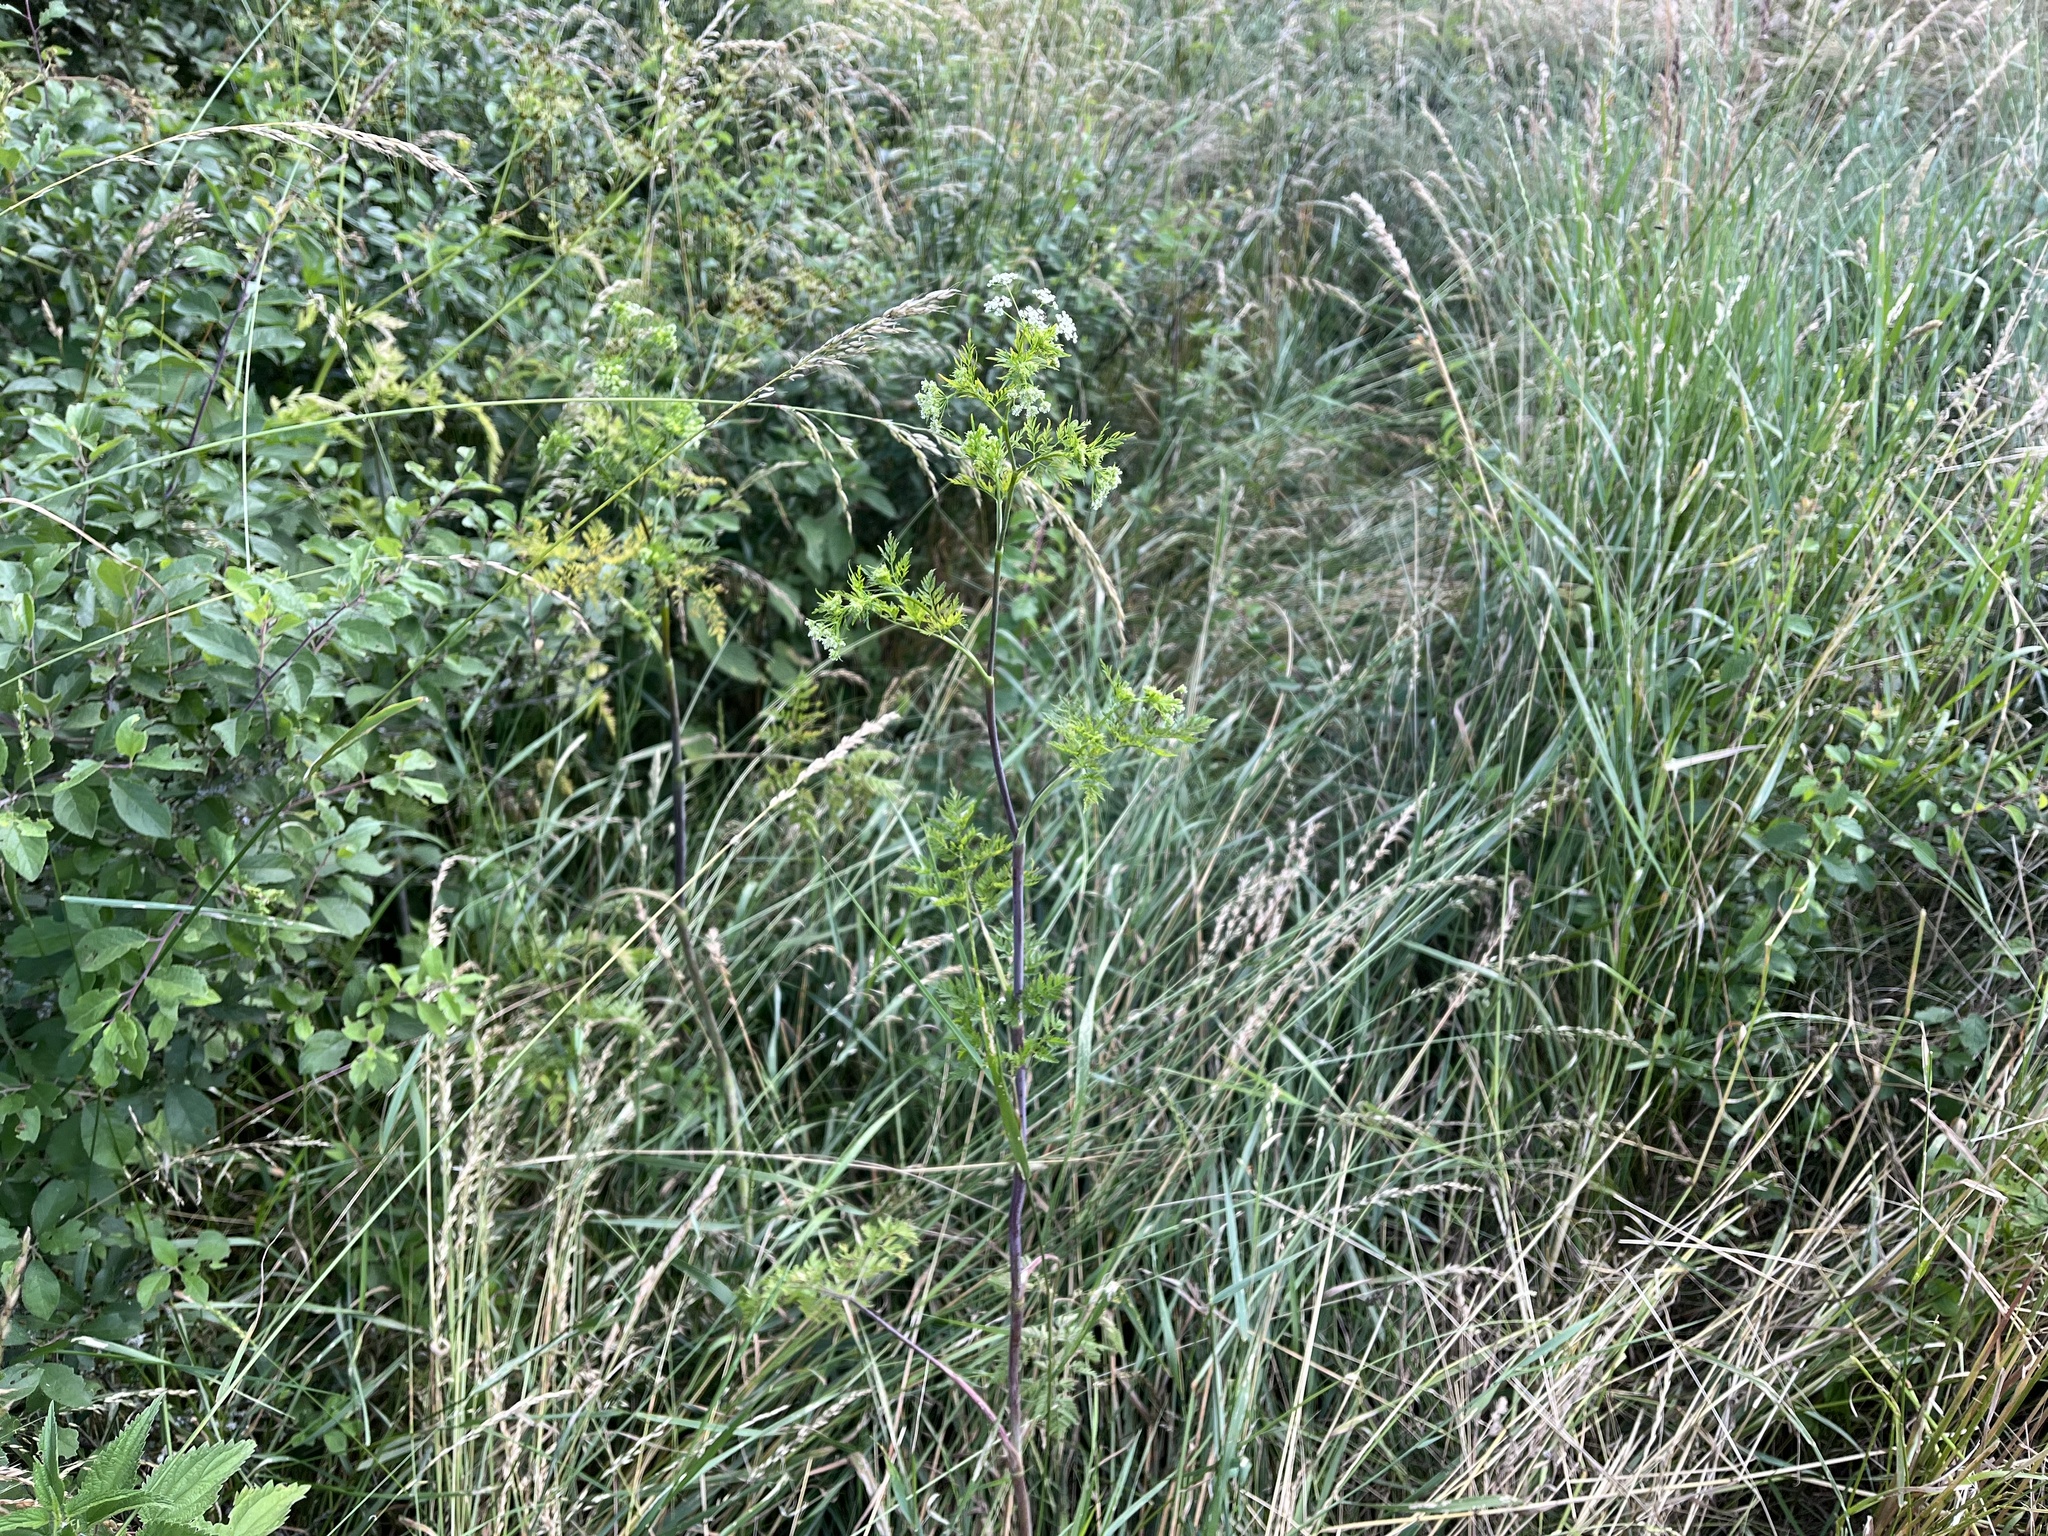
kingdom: Plantae
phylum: Tracheophyta
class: Magnoliopsida
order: Apiales
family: Apiaceae
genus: Chaerophyllum
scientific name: Chaerophyllum bulbosum
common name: Bulbous chervil
